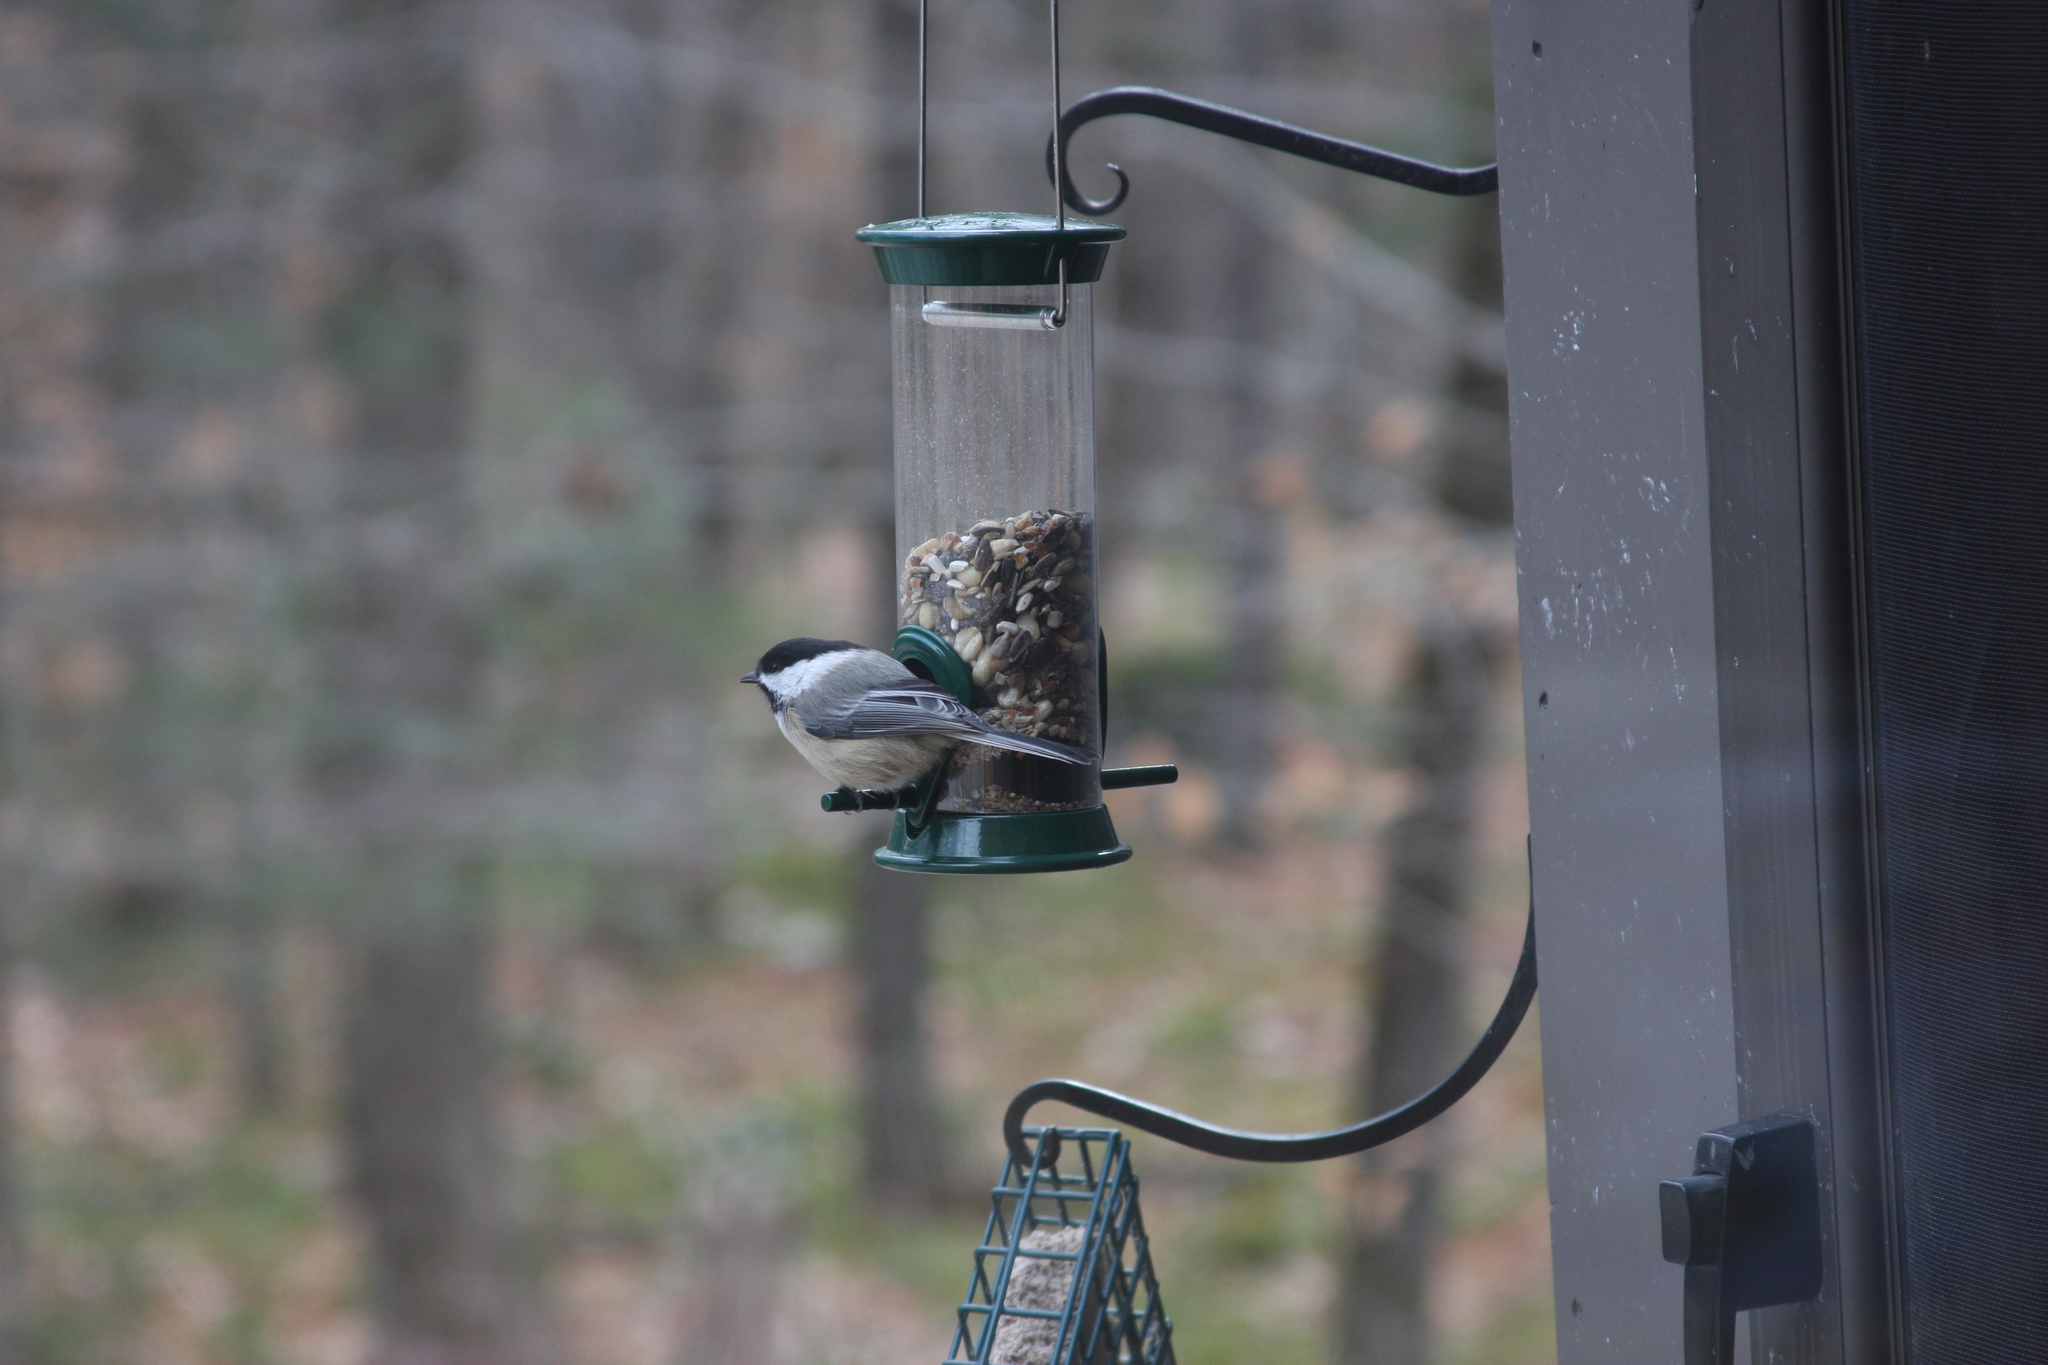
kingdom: Animalia
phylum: Chordata
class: Aves
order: Passeriformes
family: Paridae
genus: Poecile
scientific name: Poecile atricapillus
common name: Black-capped chickadee
